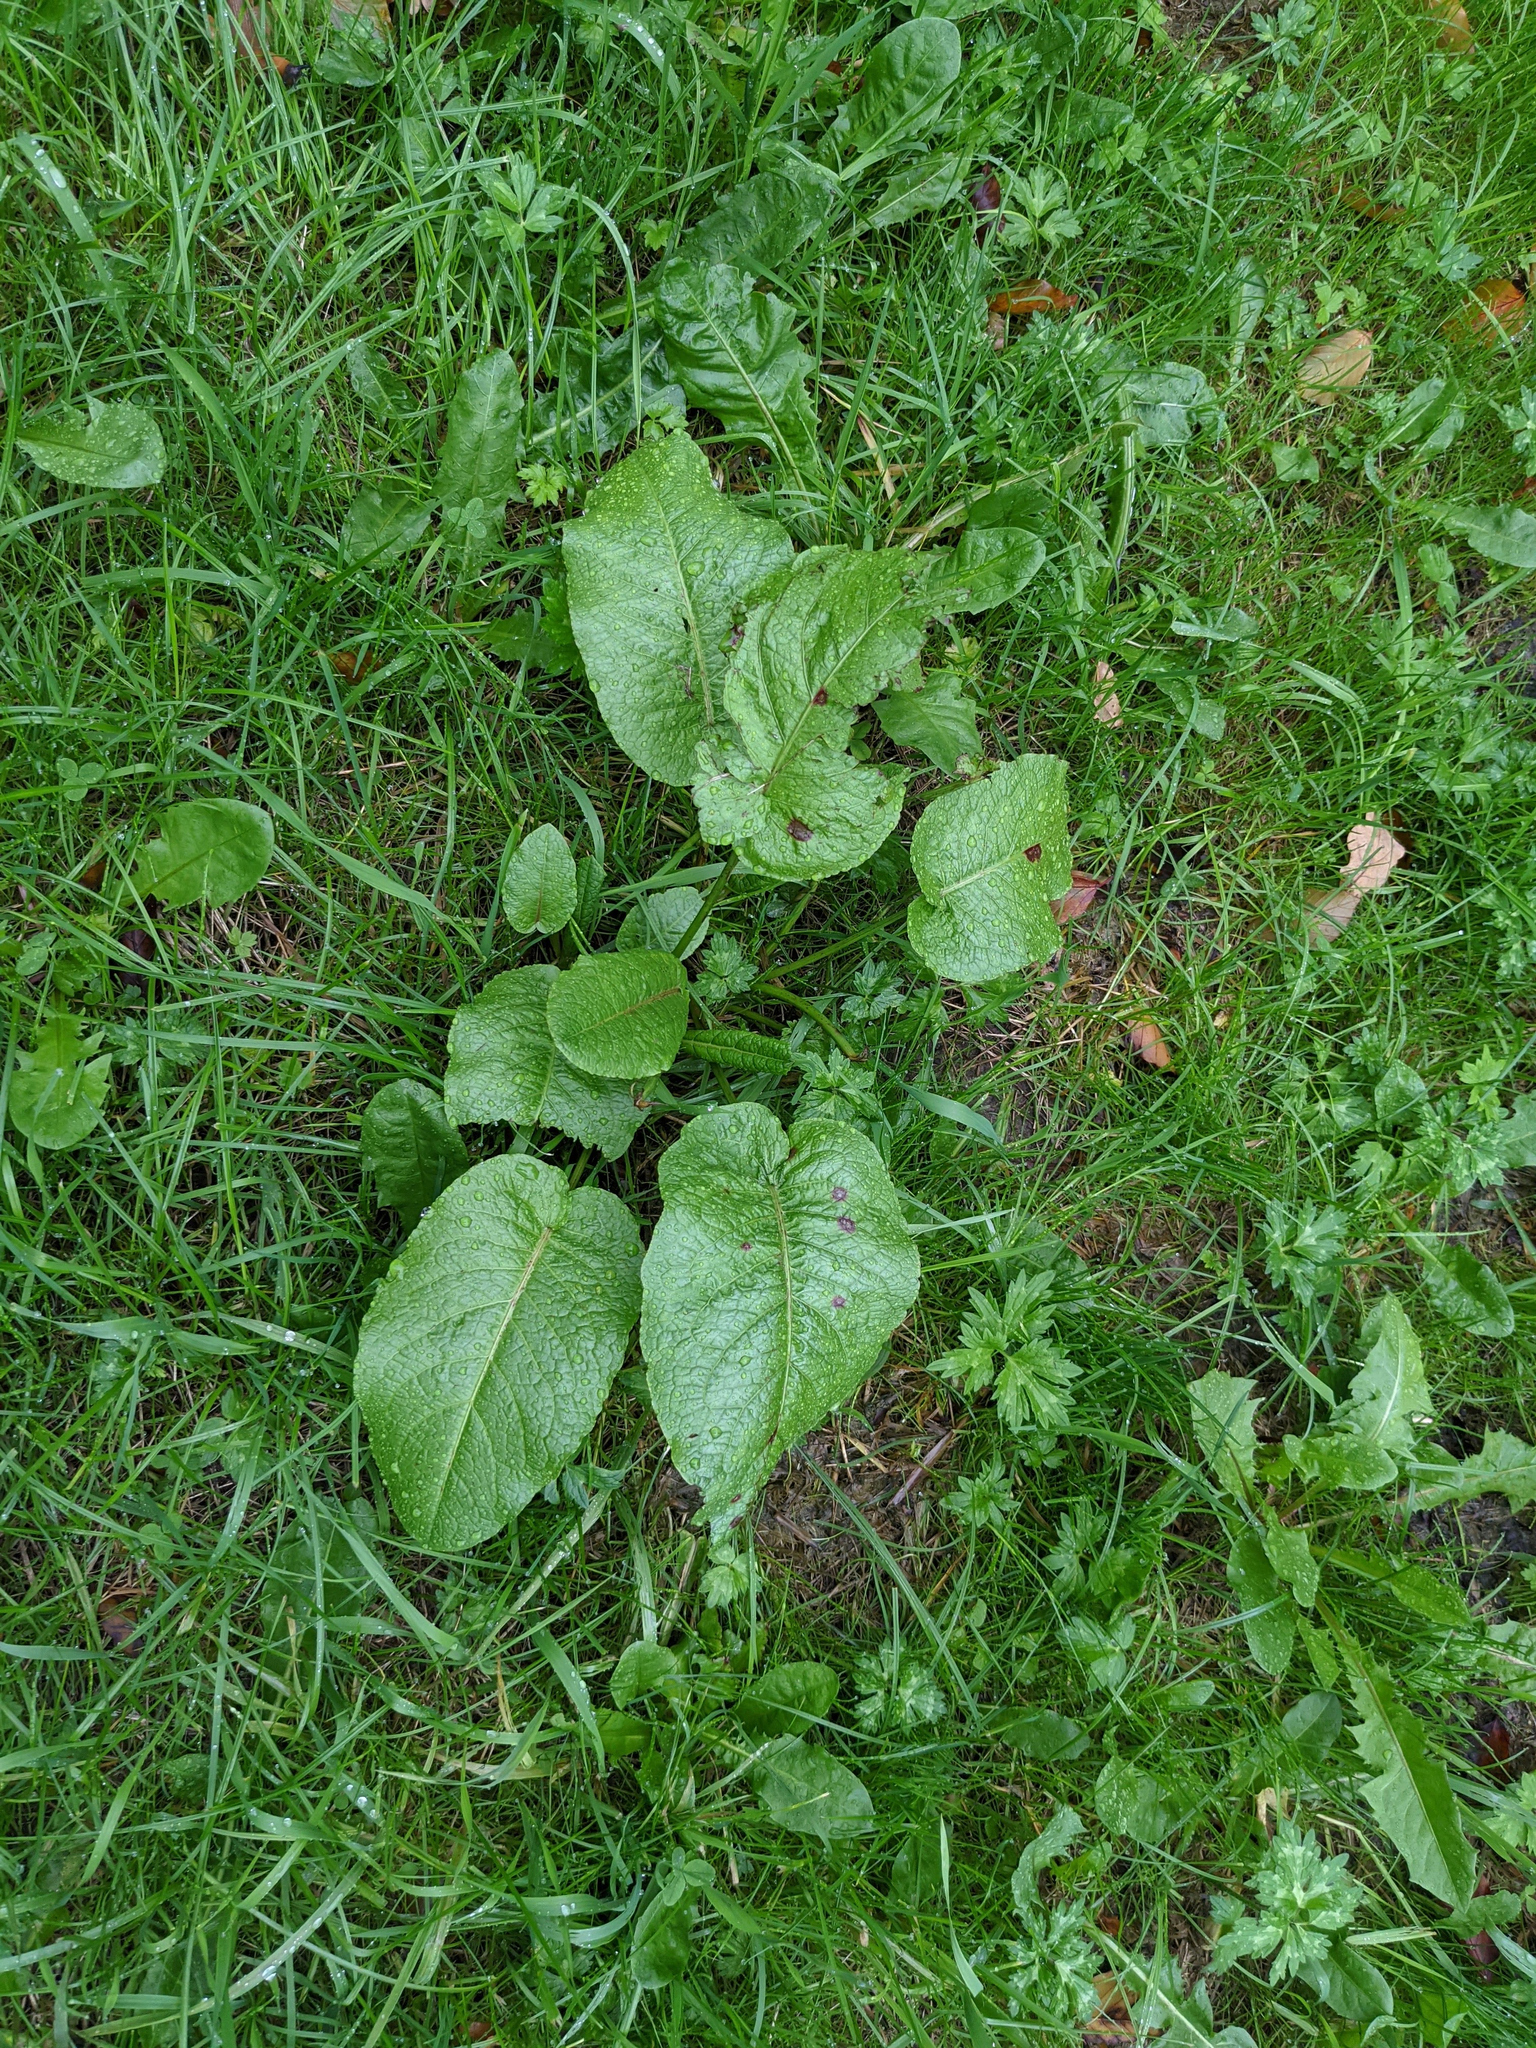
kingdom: Plantae
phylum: Tracheophyta
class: Magnoliopsida
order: Caryophyllales
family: Polygonaceae
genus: Rumex
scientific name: Rumex obtusifolius
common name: Bitter dock
